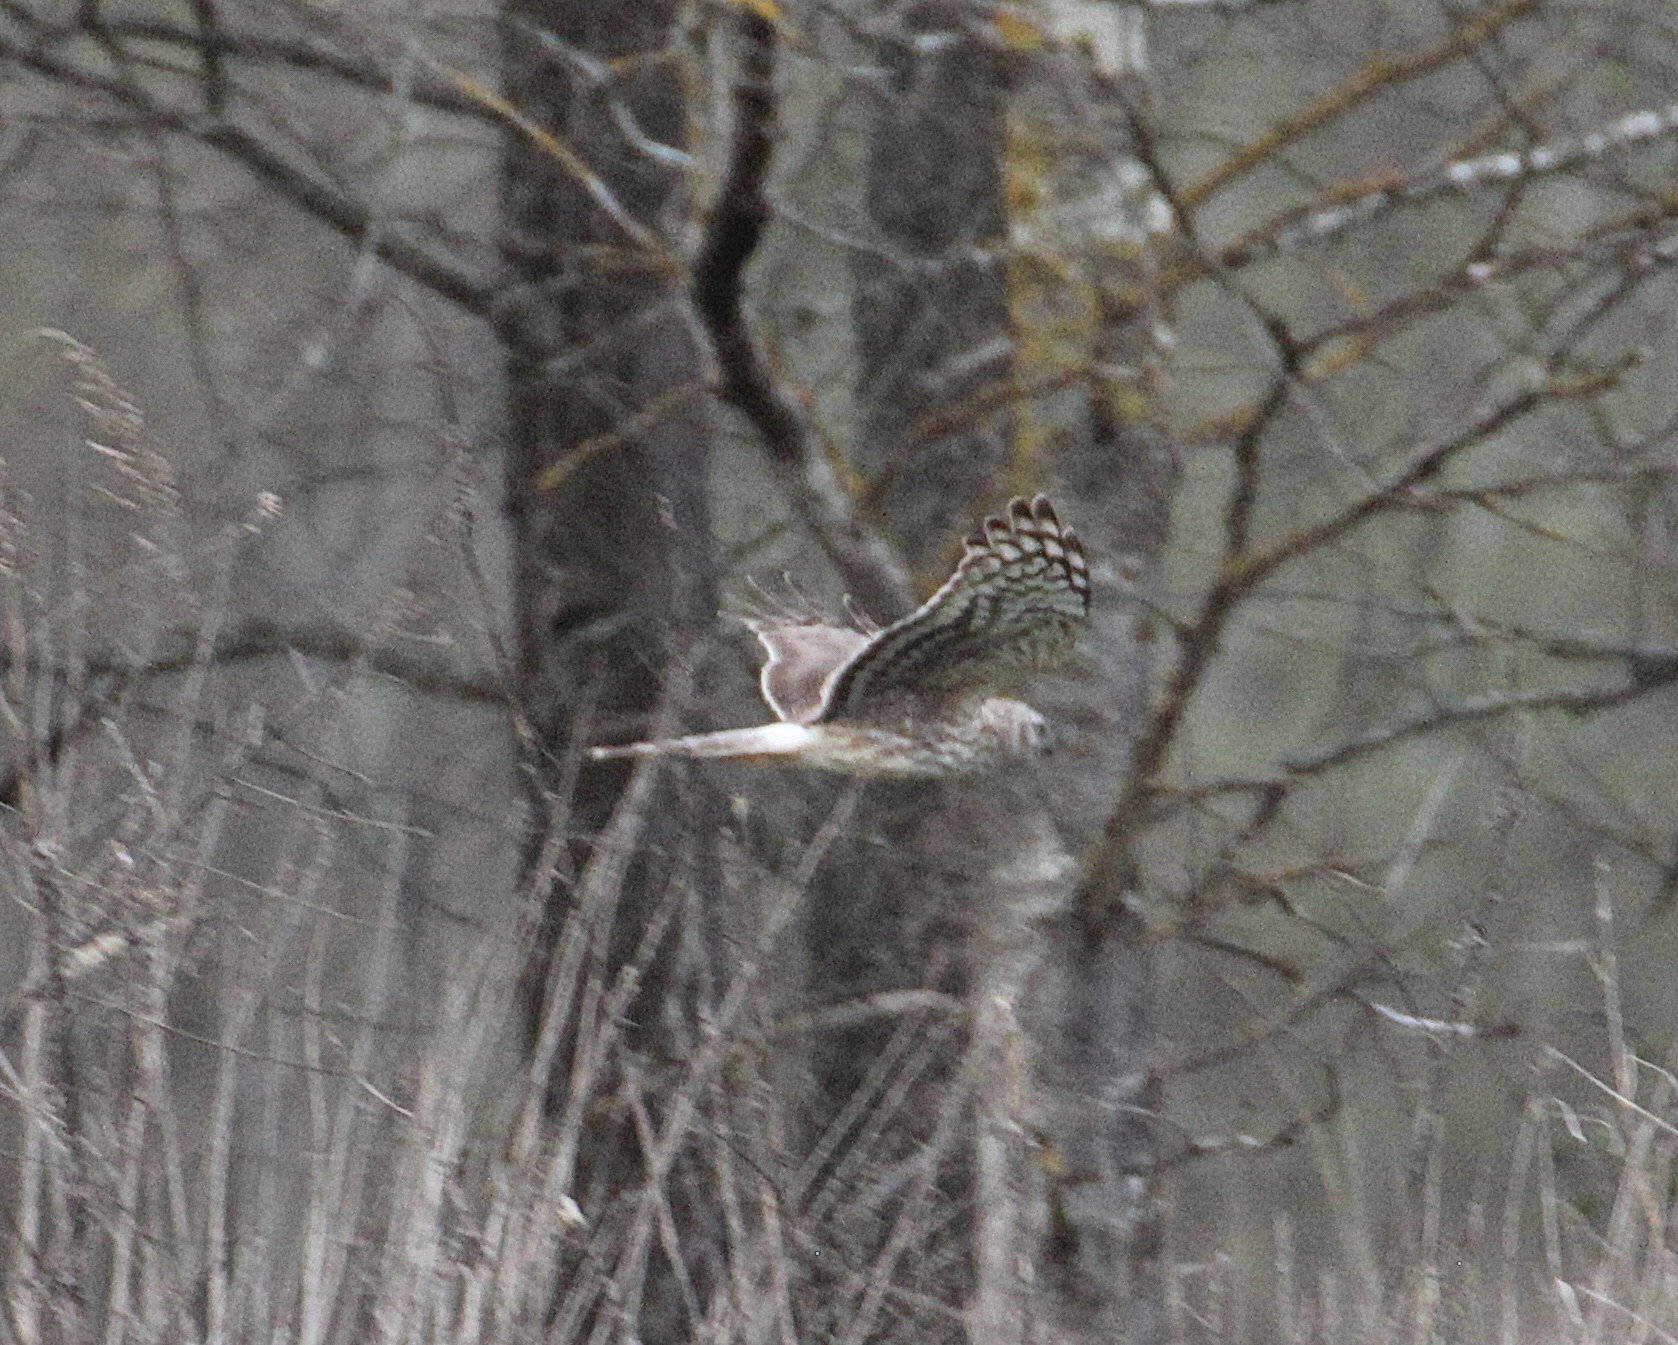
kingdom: Animalia
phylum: Chordata
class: Aves
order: Accipitriformes
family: Accipitridae
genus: Circus
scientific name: Circus cyaneus
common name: Hen harrier
